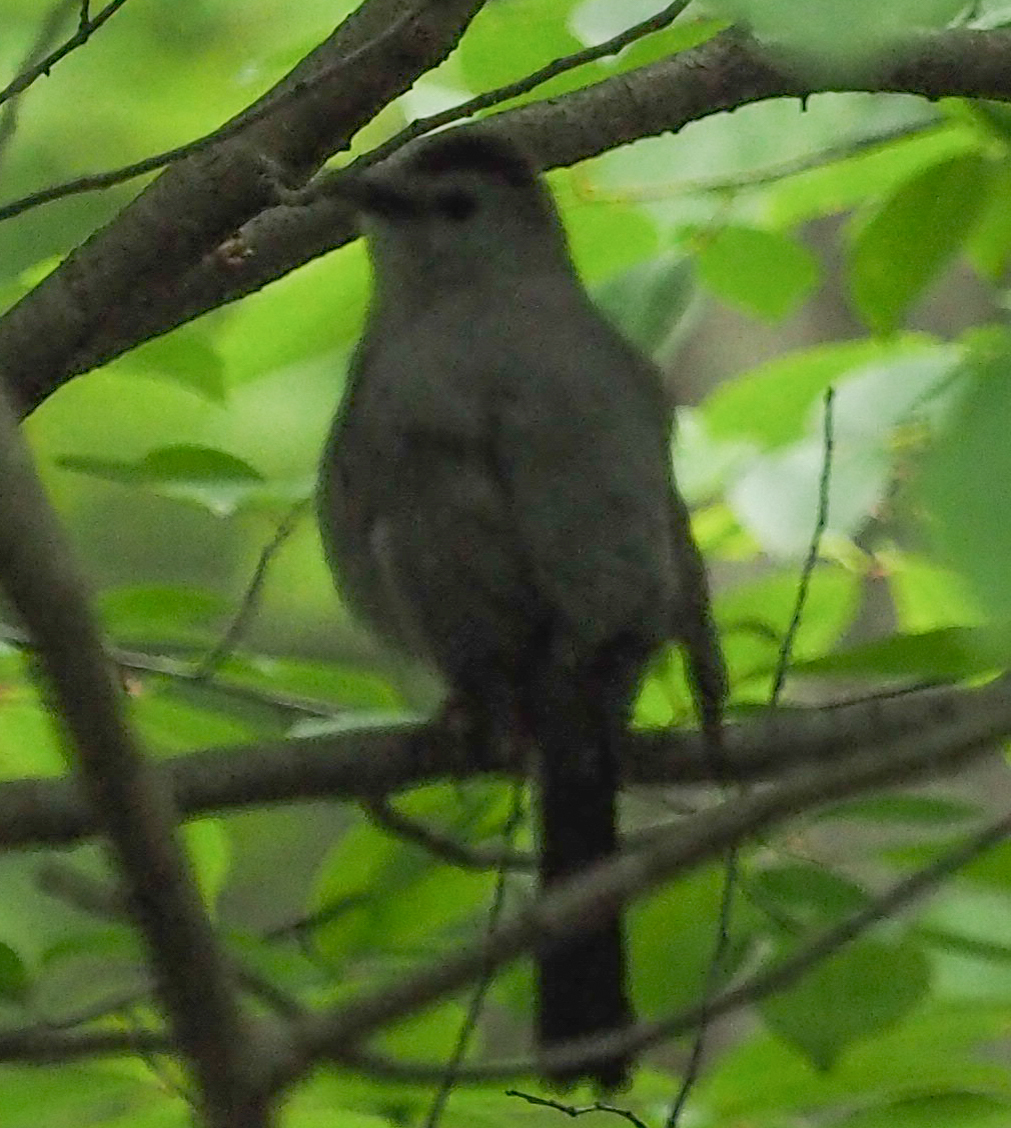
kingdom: Animalia
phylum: Chordata
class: Aves
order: Passeriformes
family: Mimidae
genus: Dumetella
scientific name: Dumetella carolinensis
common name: Gray catbird
